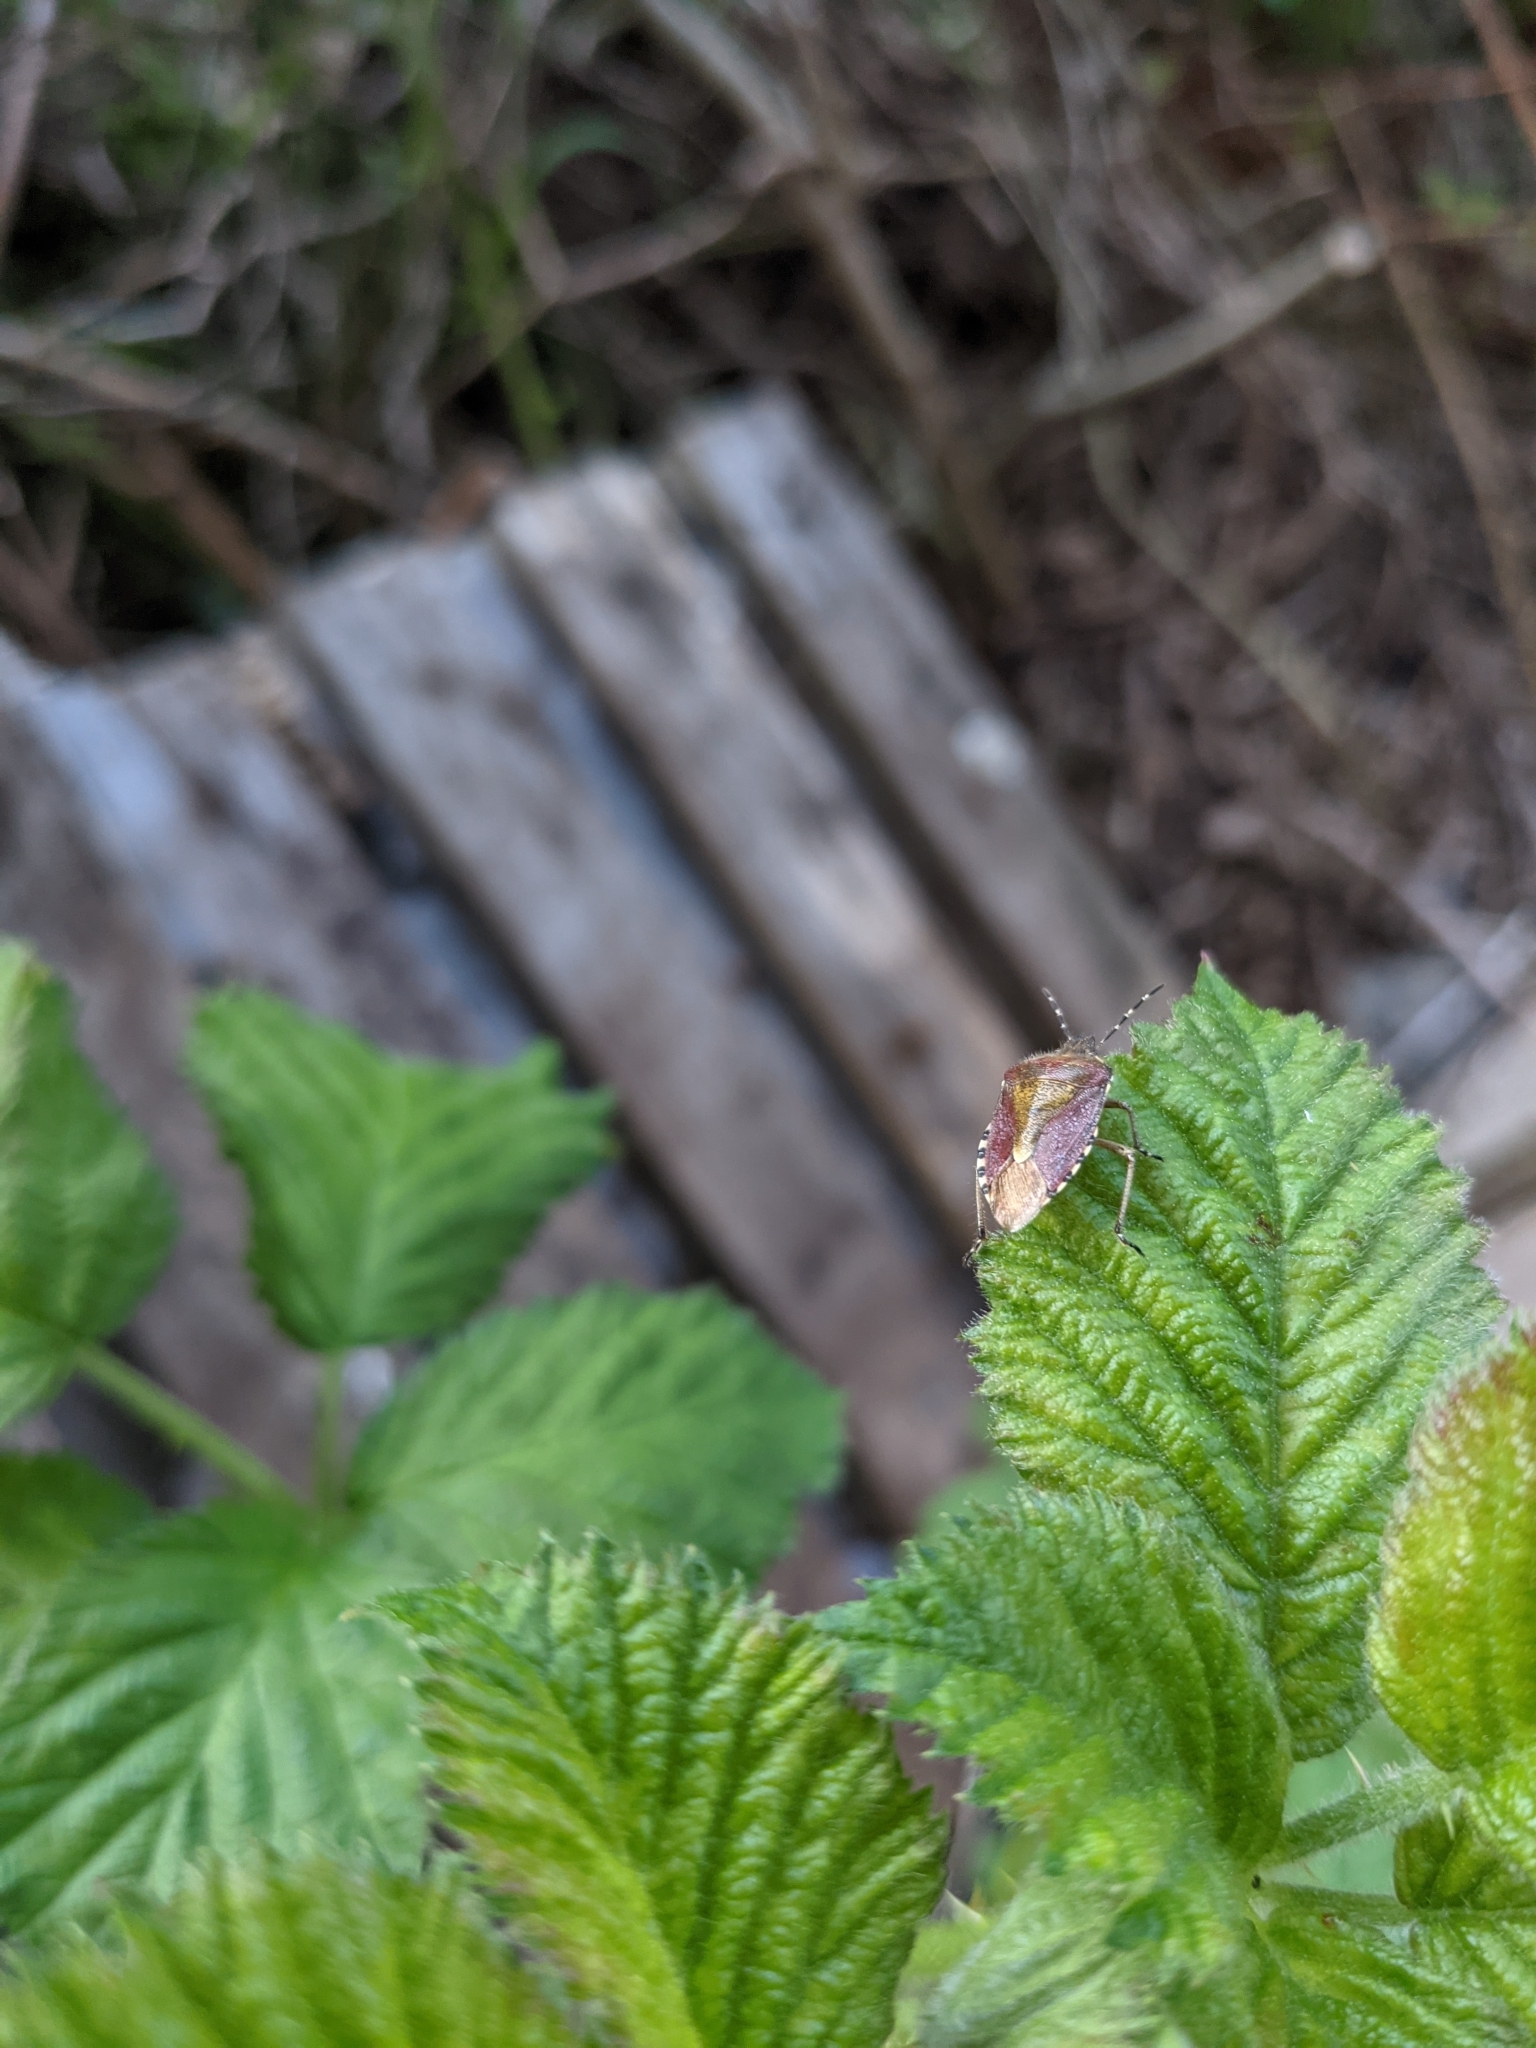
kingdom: Animalia
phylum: Arthropoda
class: Insecta
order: Hemiptera
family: Pentatomidae
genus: Dolycoris
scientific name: Dolycoris baccarum
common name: Sloe bug
